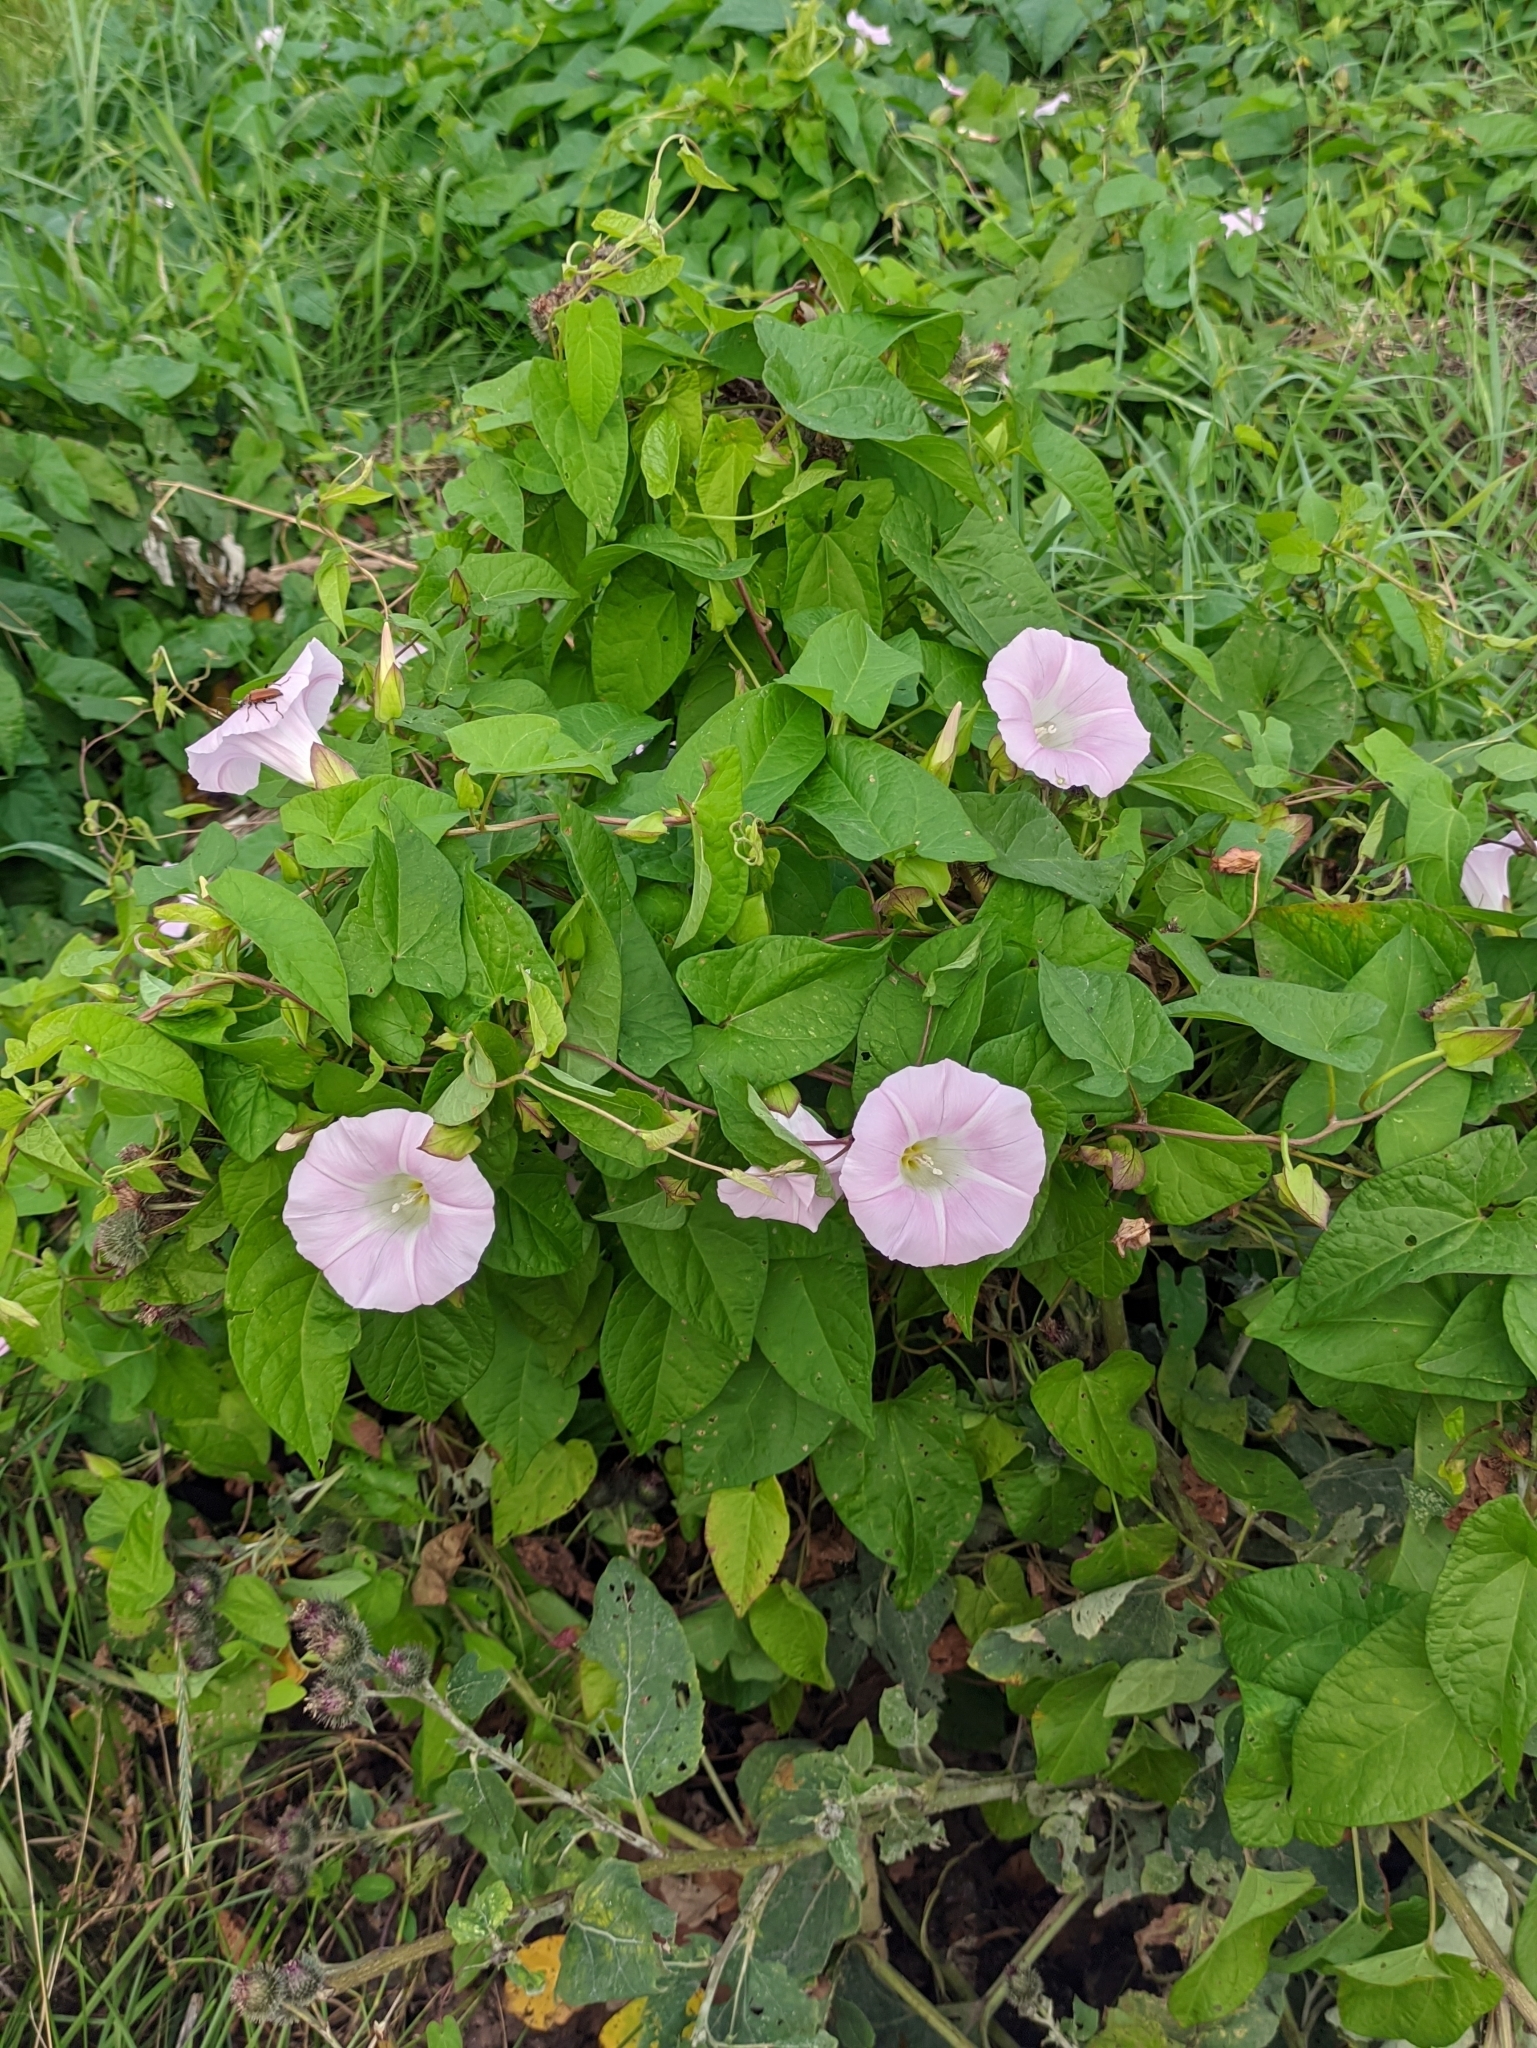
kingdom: Plantae
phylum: Tracheophyta
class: Magnoliopsida
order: Solanales
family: Convolvulaceae
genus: Calystegia
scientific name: Calystegia sepium
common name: Hedge bindweed
